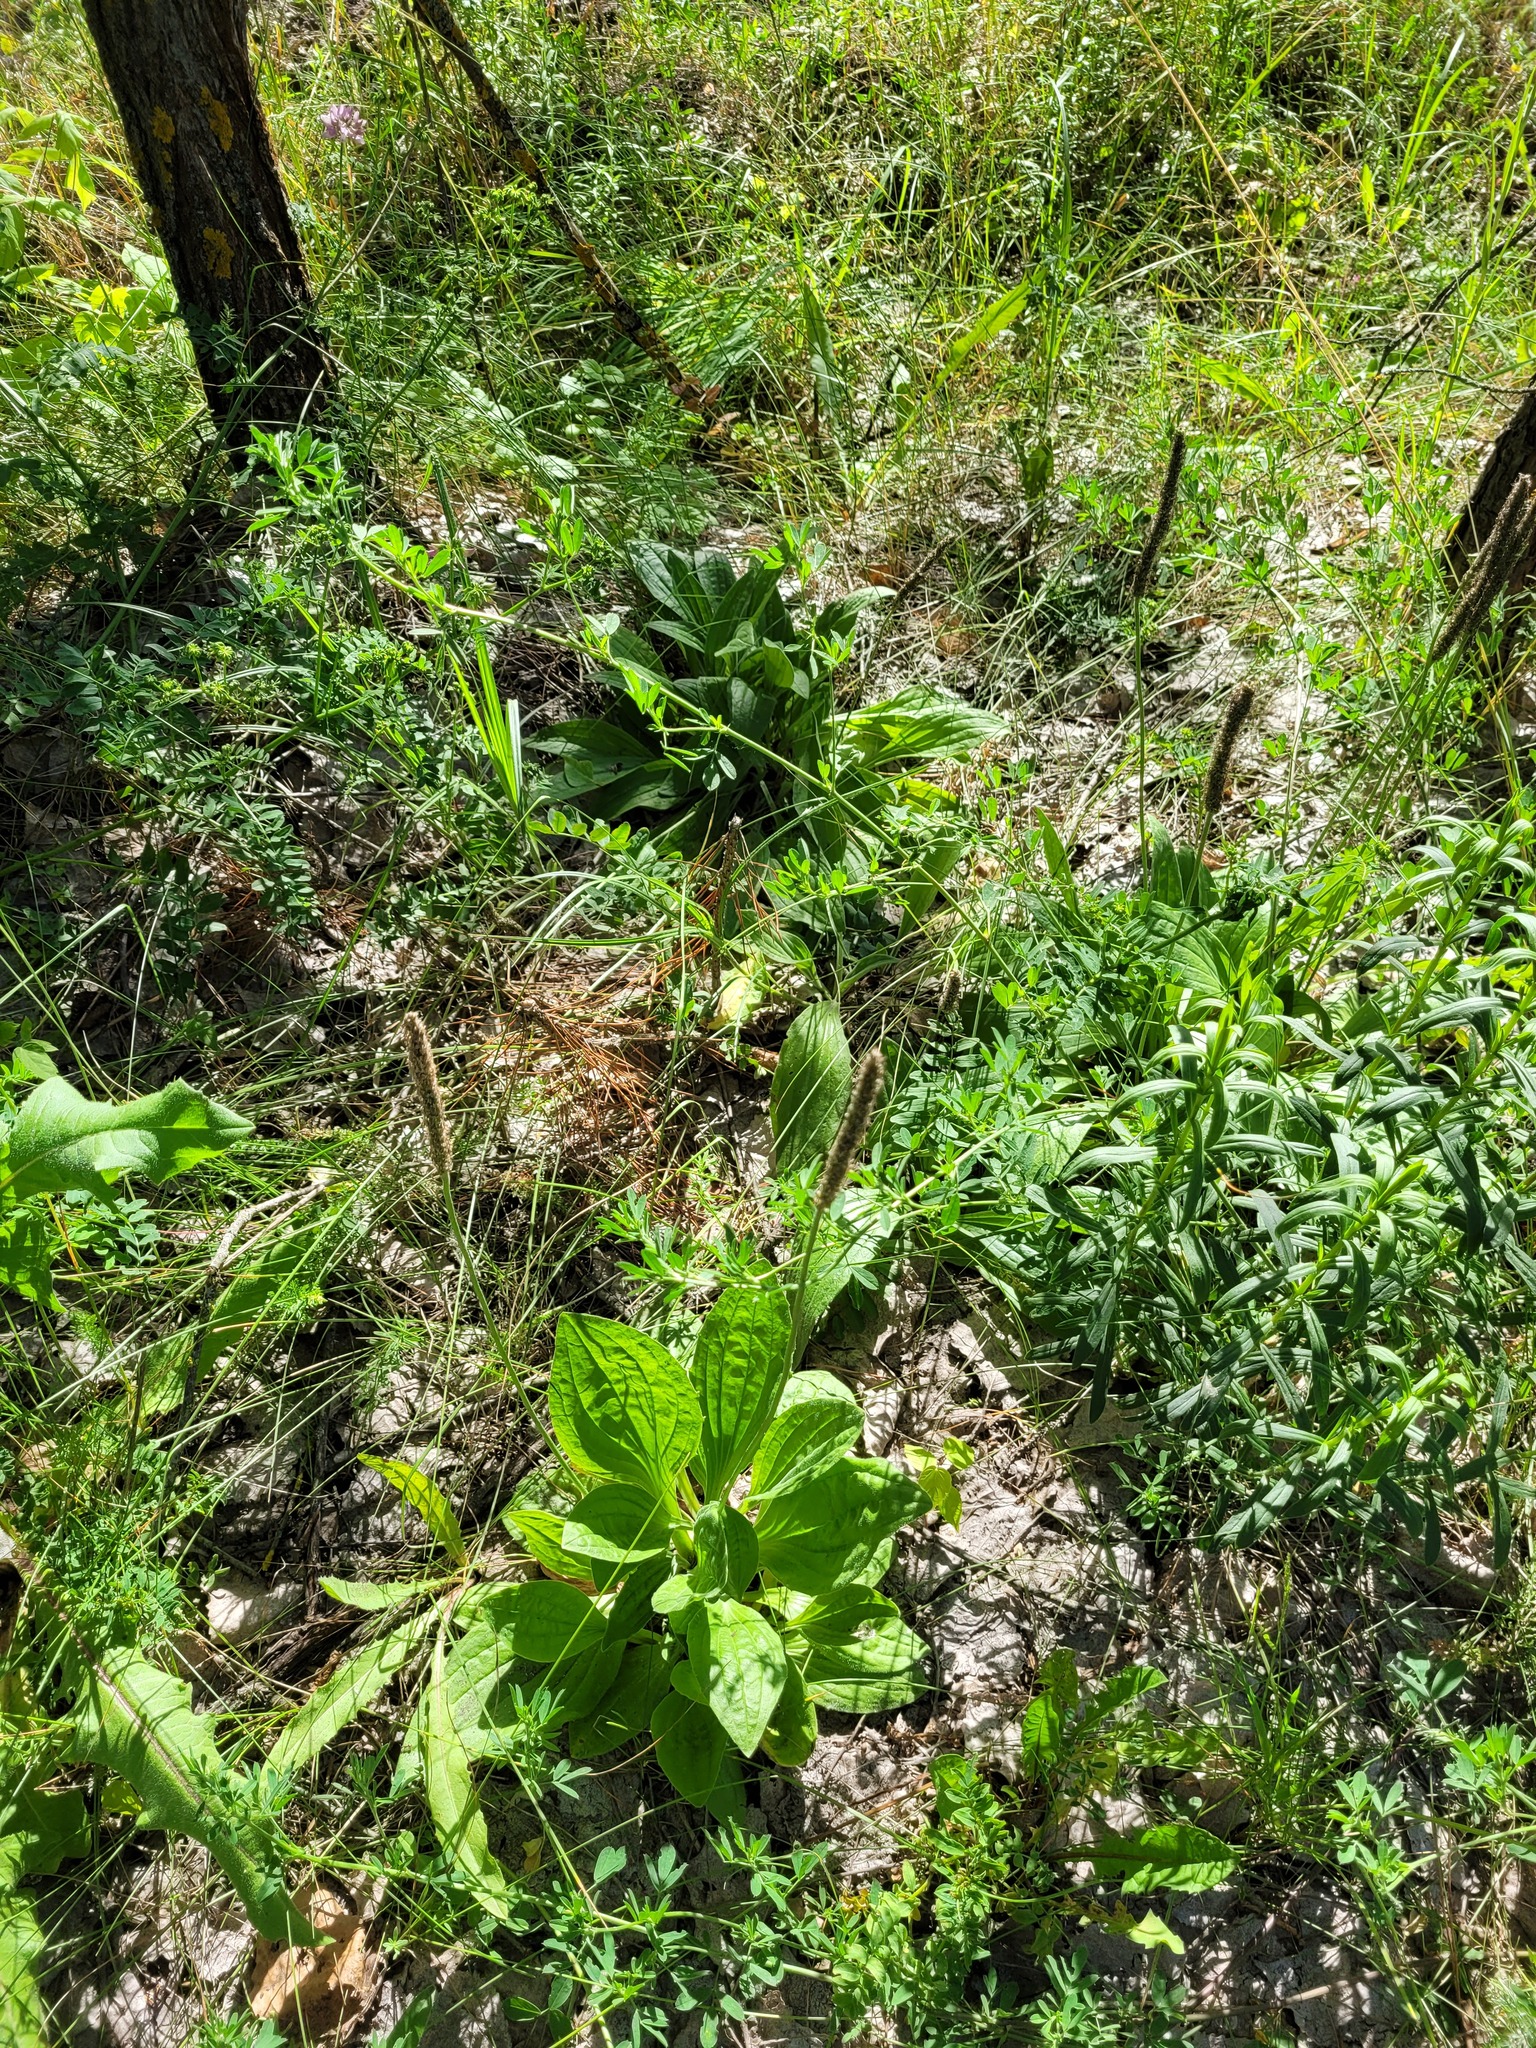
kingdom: Plantae
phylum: Tracheophyta
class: Magnoliopsida
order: Lamiales
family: Plantaginaceae
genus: Plantago
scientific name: Plantago urvillei
